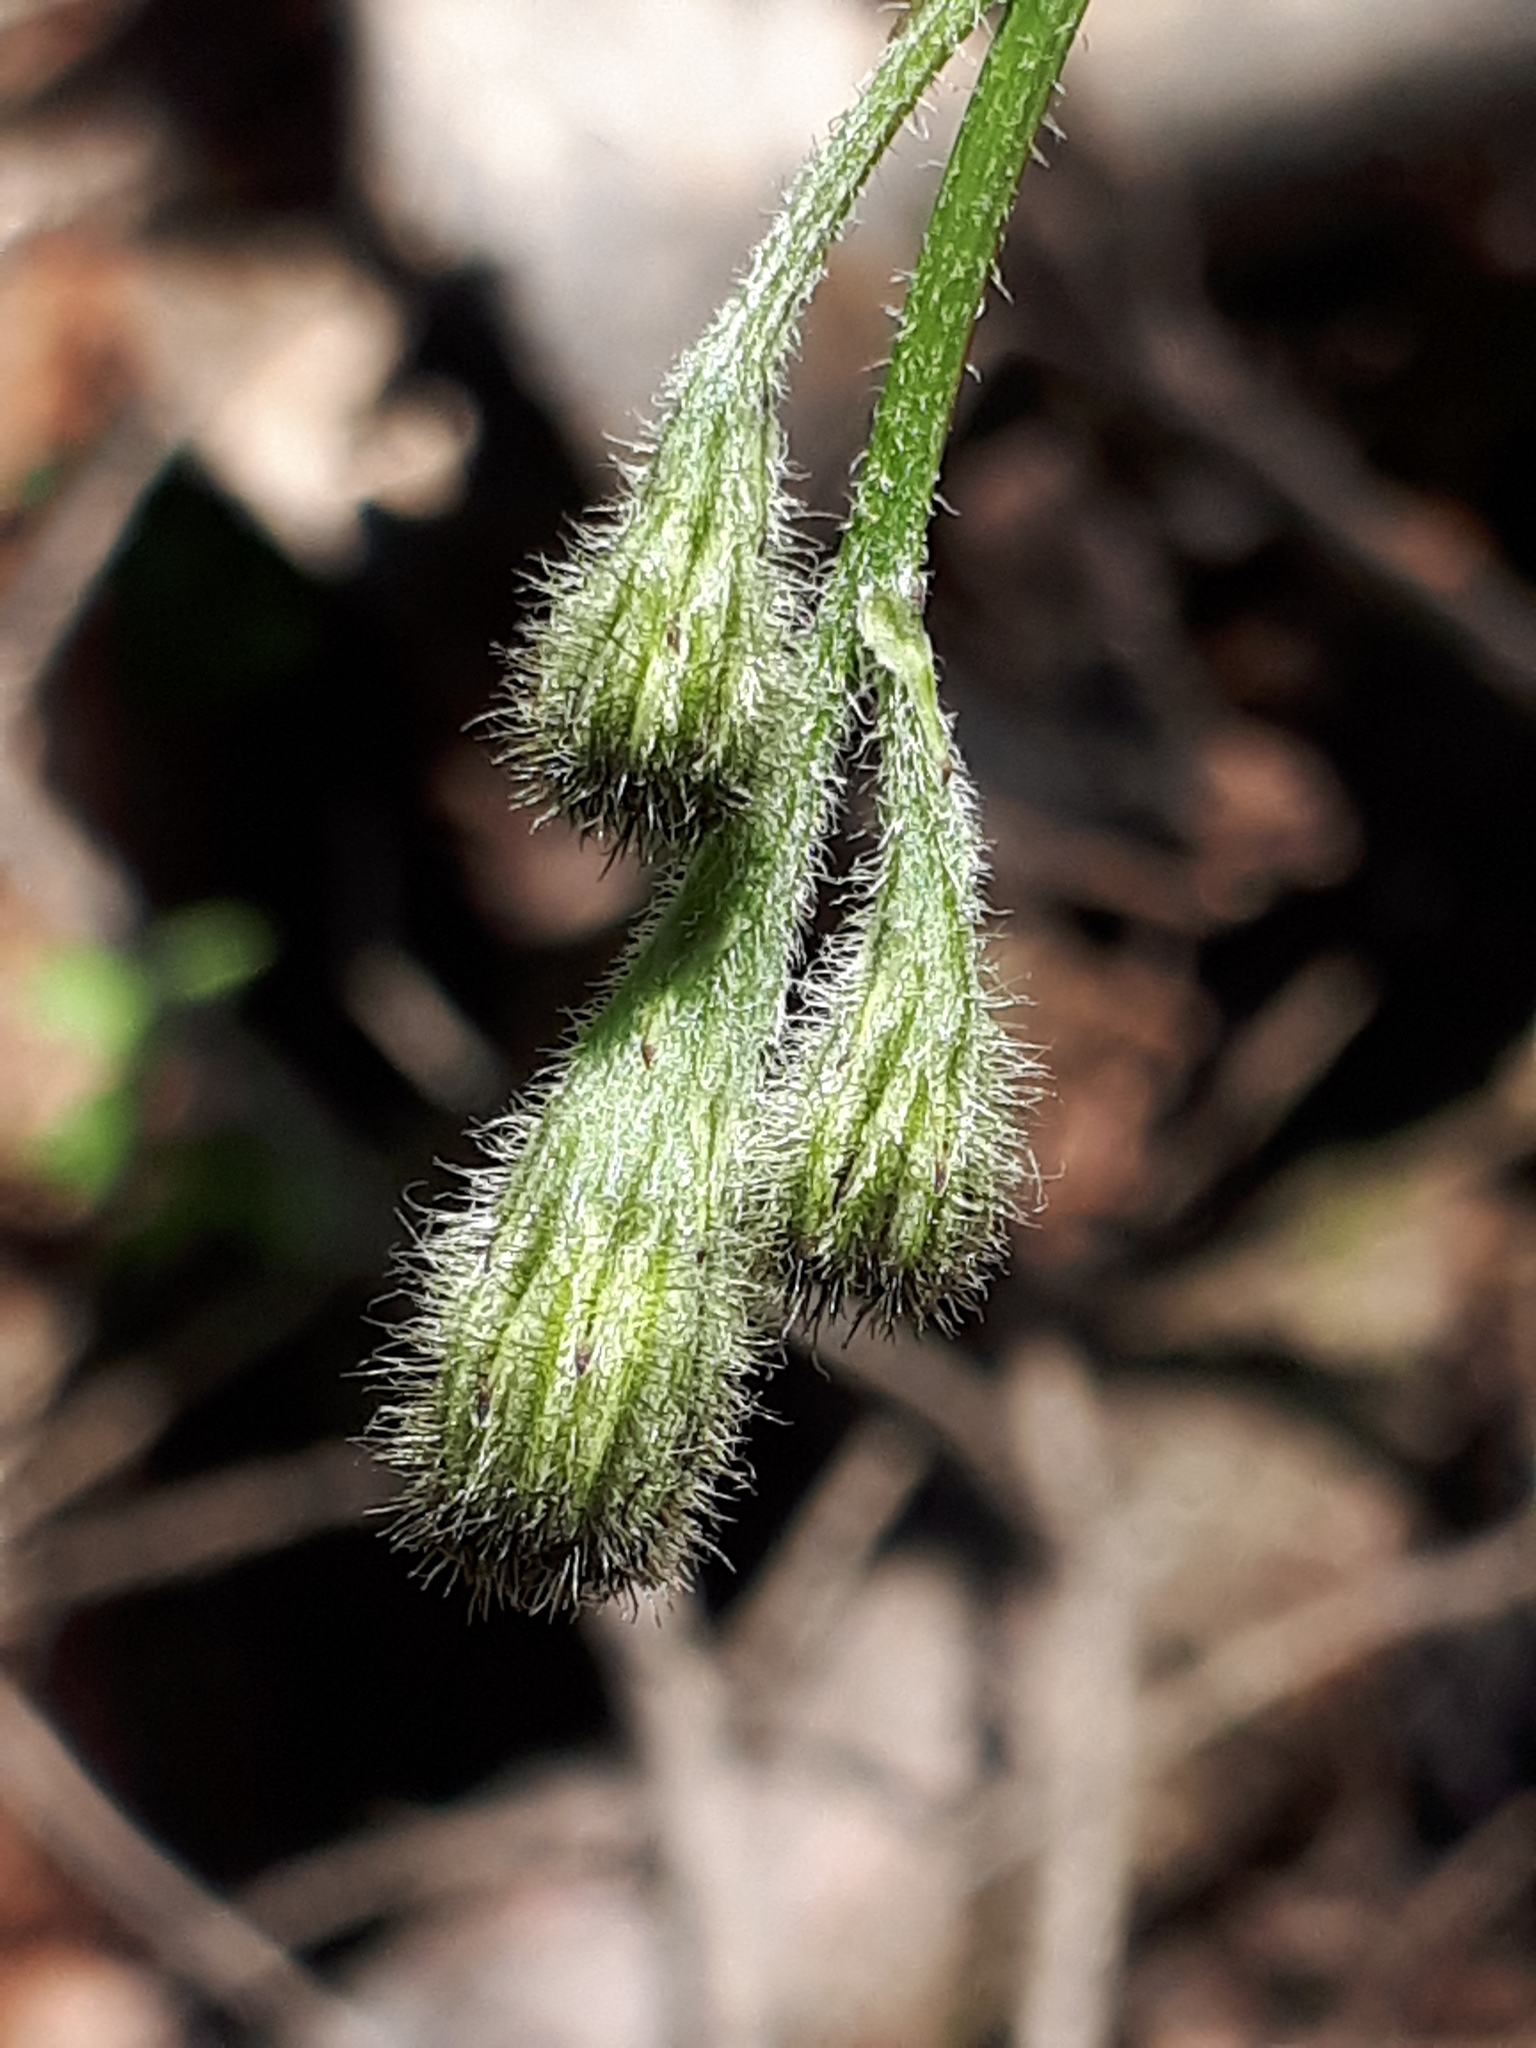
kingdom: Plantae
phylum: Tracheophyta
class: Magnoliopsida
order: Asterales
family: Asteraceae
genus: Scorzoneroides
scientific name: Scorzoneroides autumnalis
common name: Autumn hawkbit
